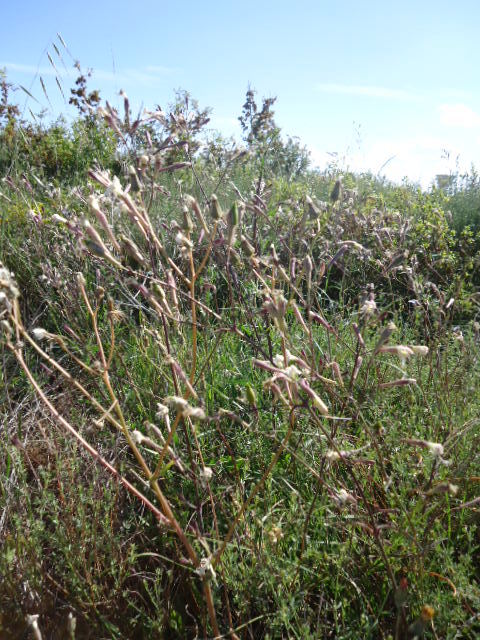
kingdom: Plantae
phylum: Tracheophyta
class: Magnoliopsida
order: Caryophyllales
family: Caryophyllaceae
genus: Silene
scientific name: Silene italica
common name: Italian catchfly
